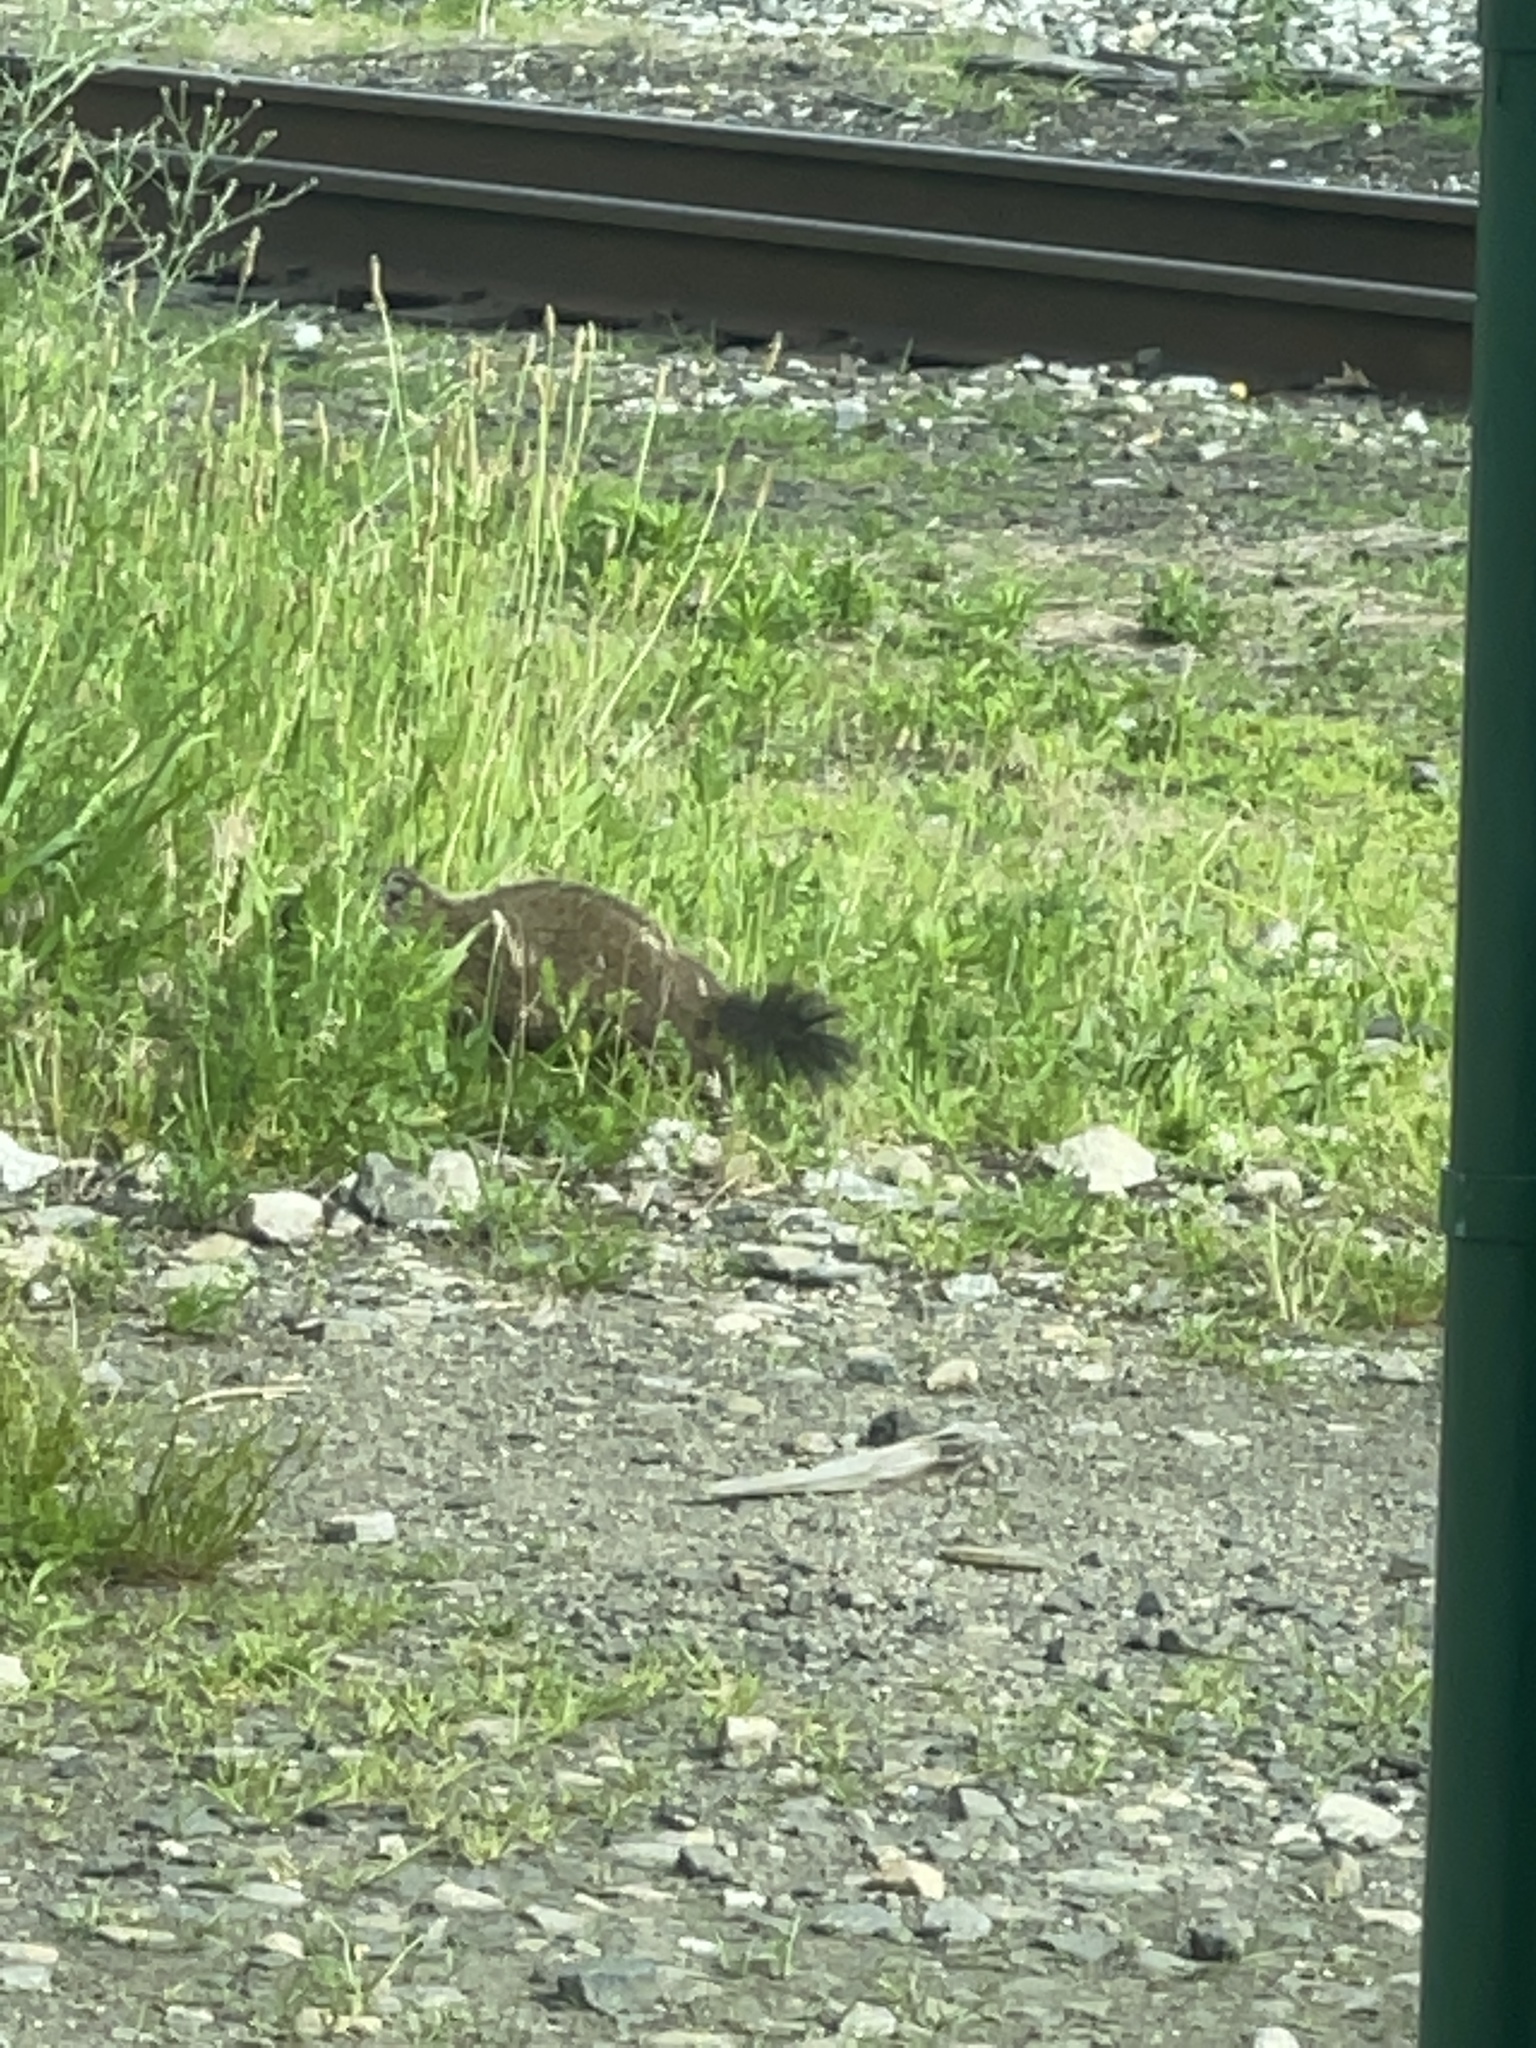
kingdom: Animalia
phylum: Chordata
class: Mammalia
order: Rodentia
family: Sciuridae
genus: Marmota
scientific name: Marmota monax
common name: Groundhog
